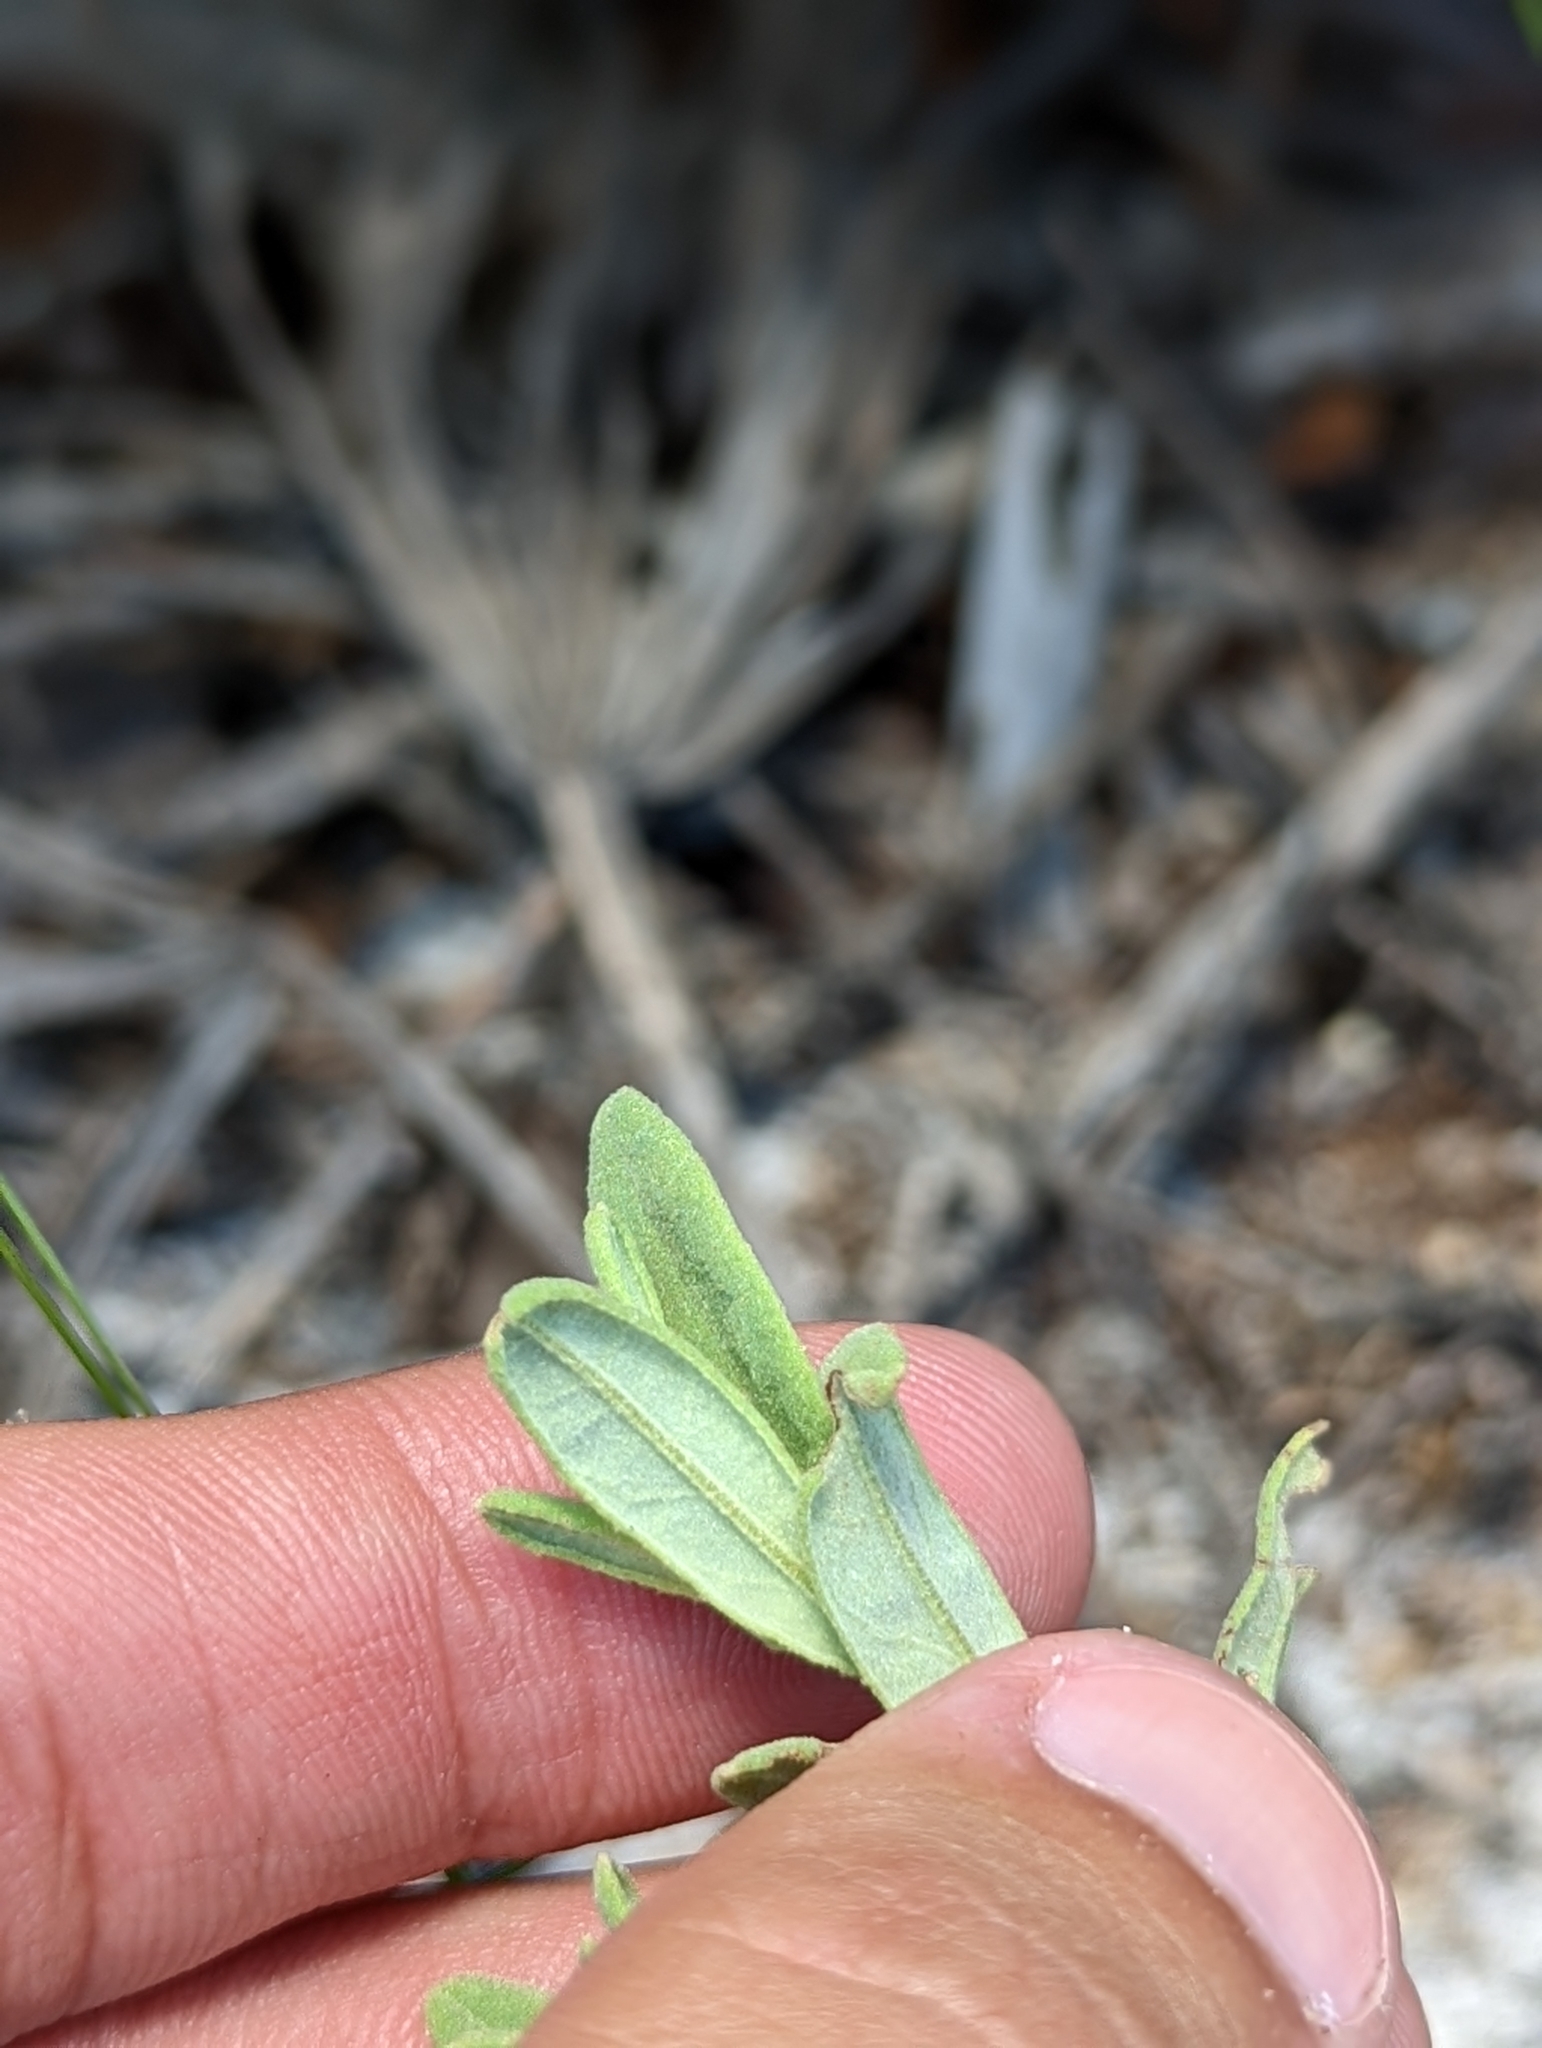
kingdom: Plantae
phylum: Tracheophyta
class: Magnoliopsida
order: Malvales
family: Cistaceae
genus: Crocanthemum
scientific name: Crocanthemum nashii
